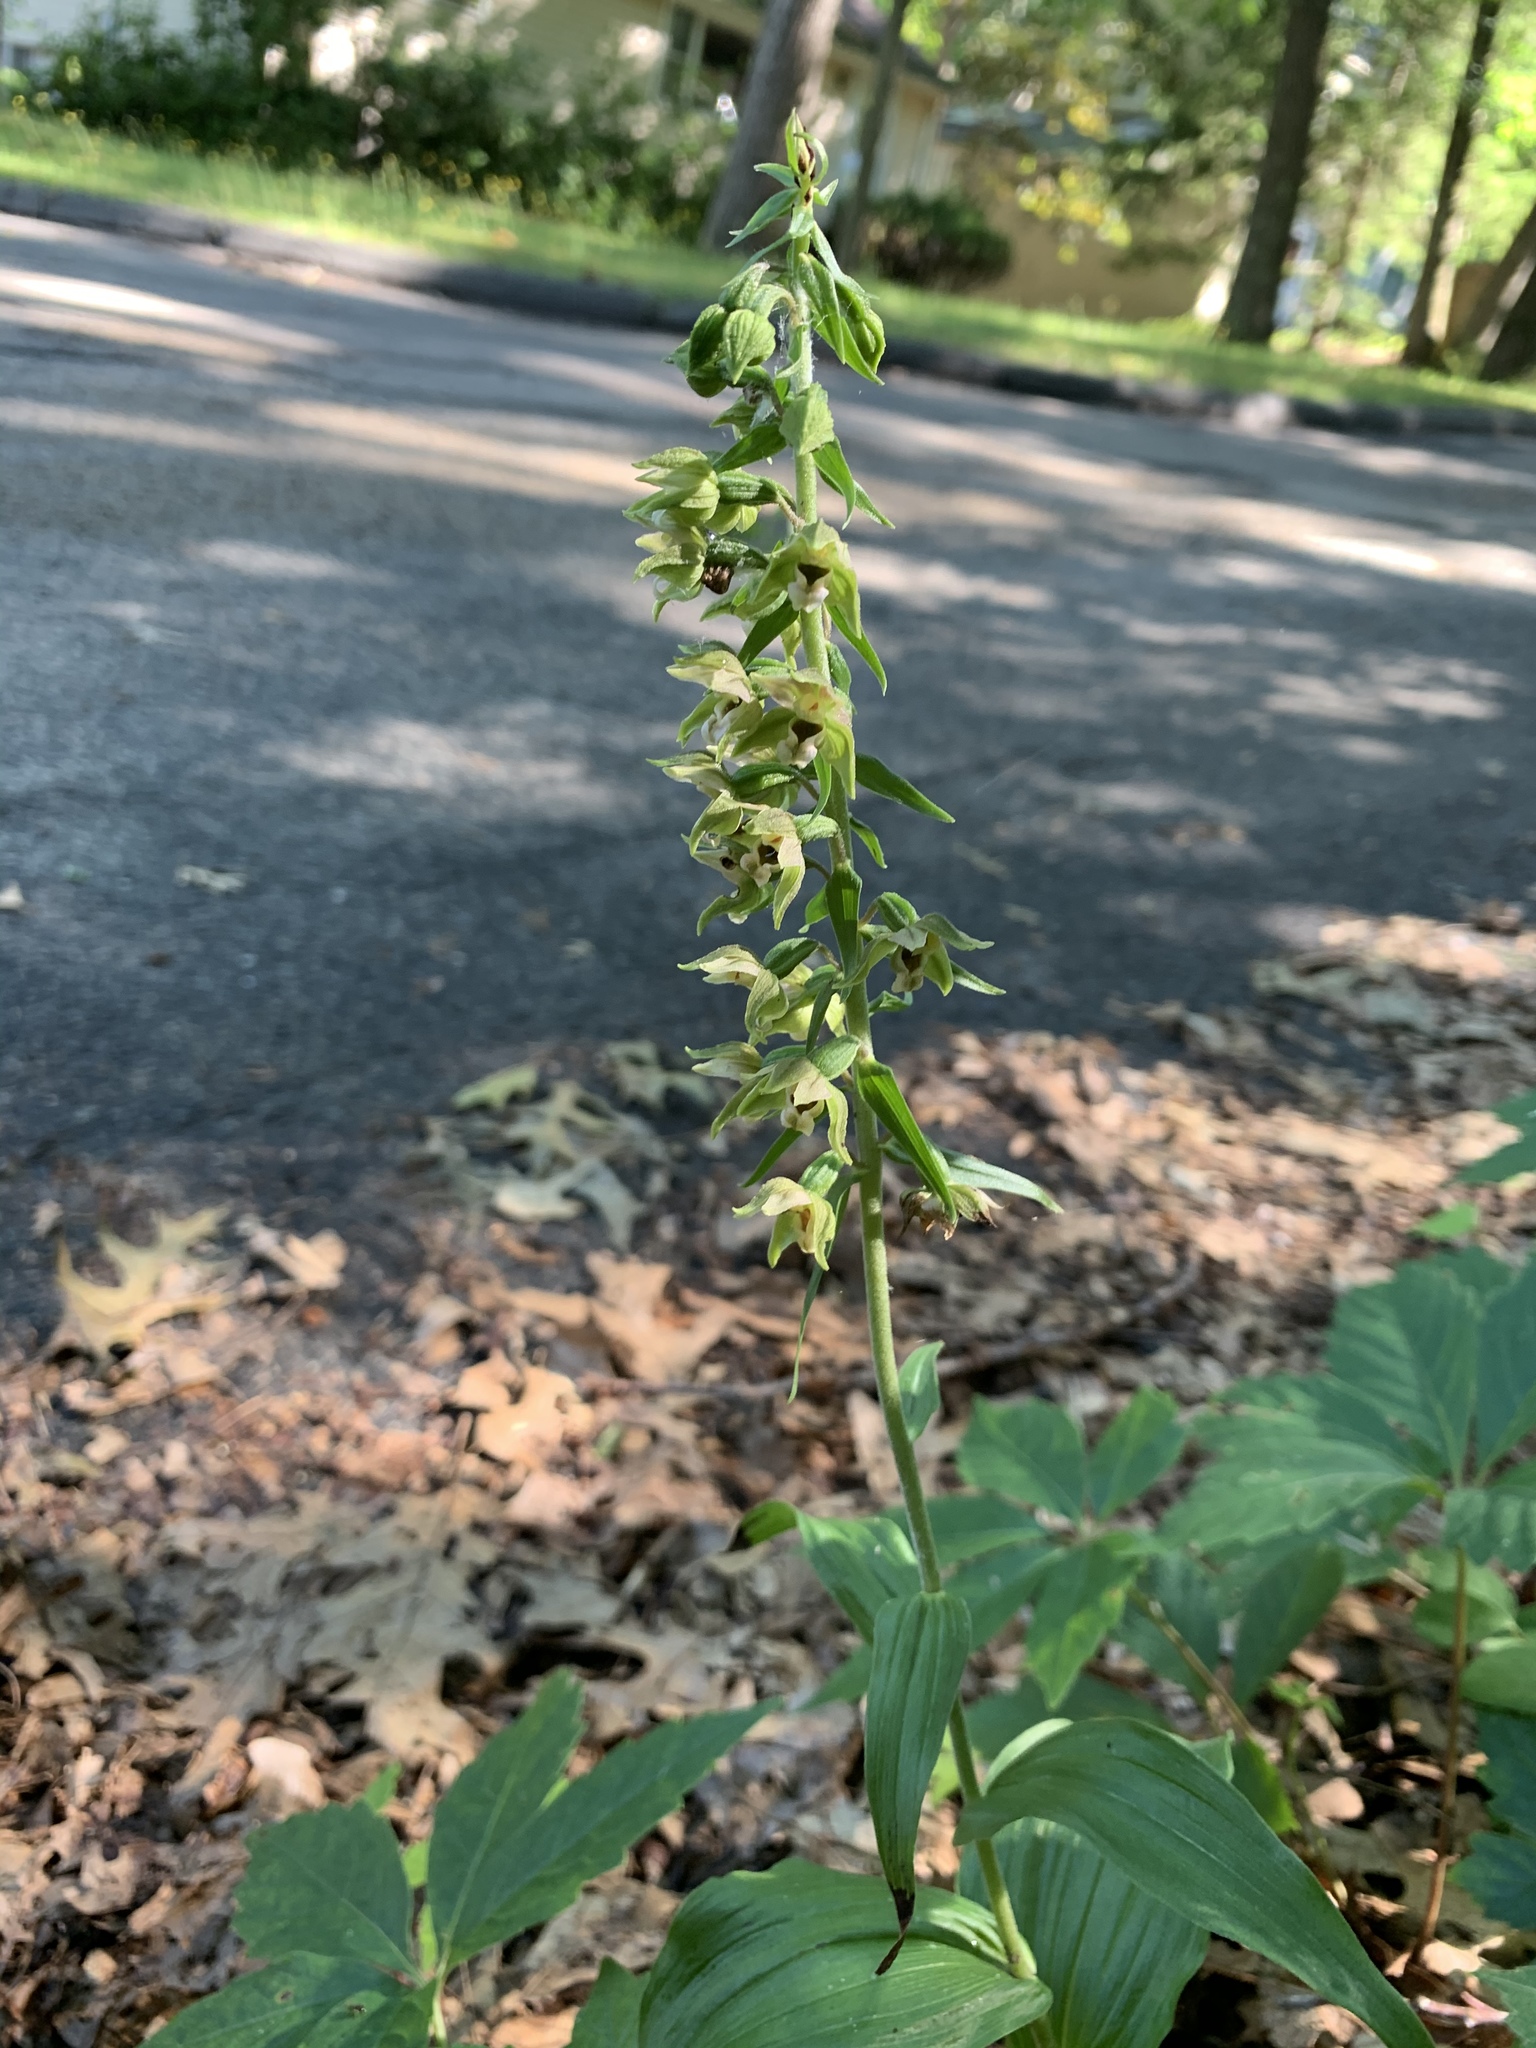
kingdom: Plantae
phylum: Tracheophyta
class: Liliopsida
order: Asparagales
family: Orchidaceae
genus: Epipactis
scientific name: Epipactis helleborine
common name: Broad-leaved helleborine
